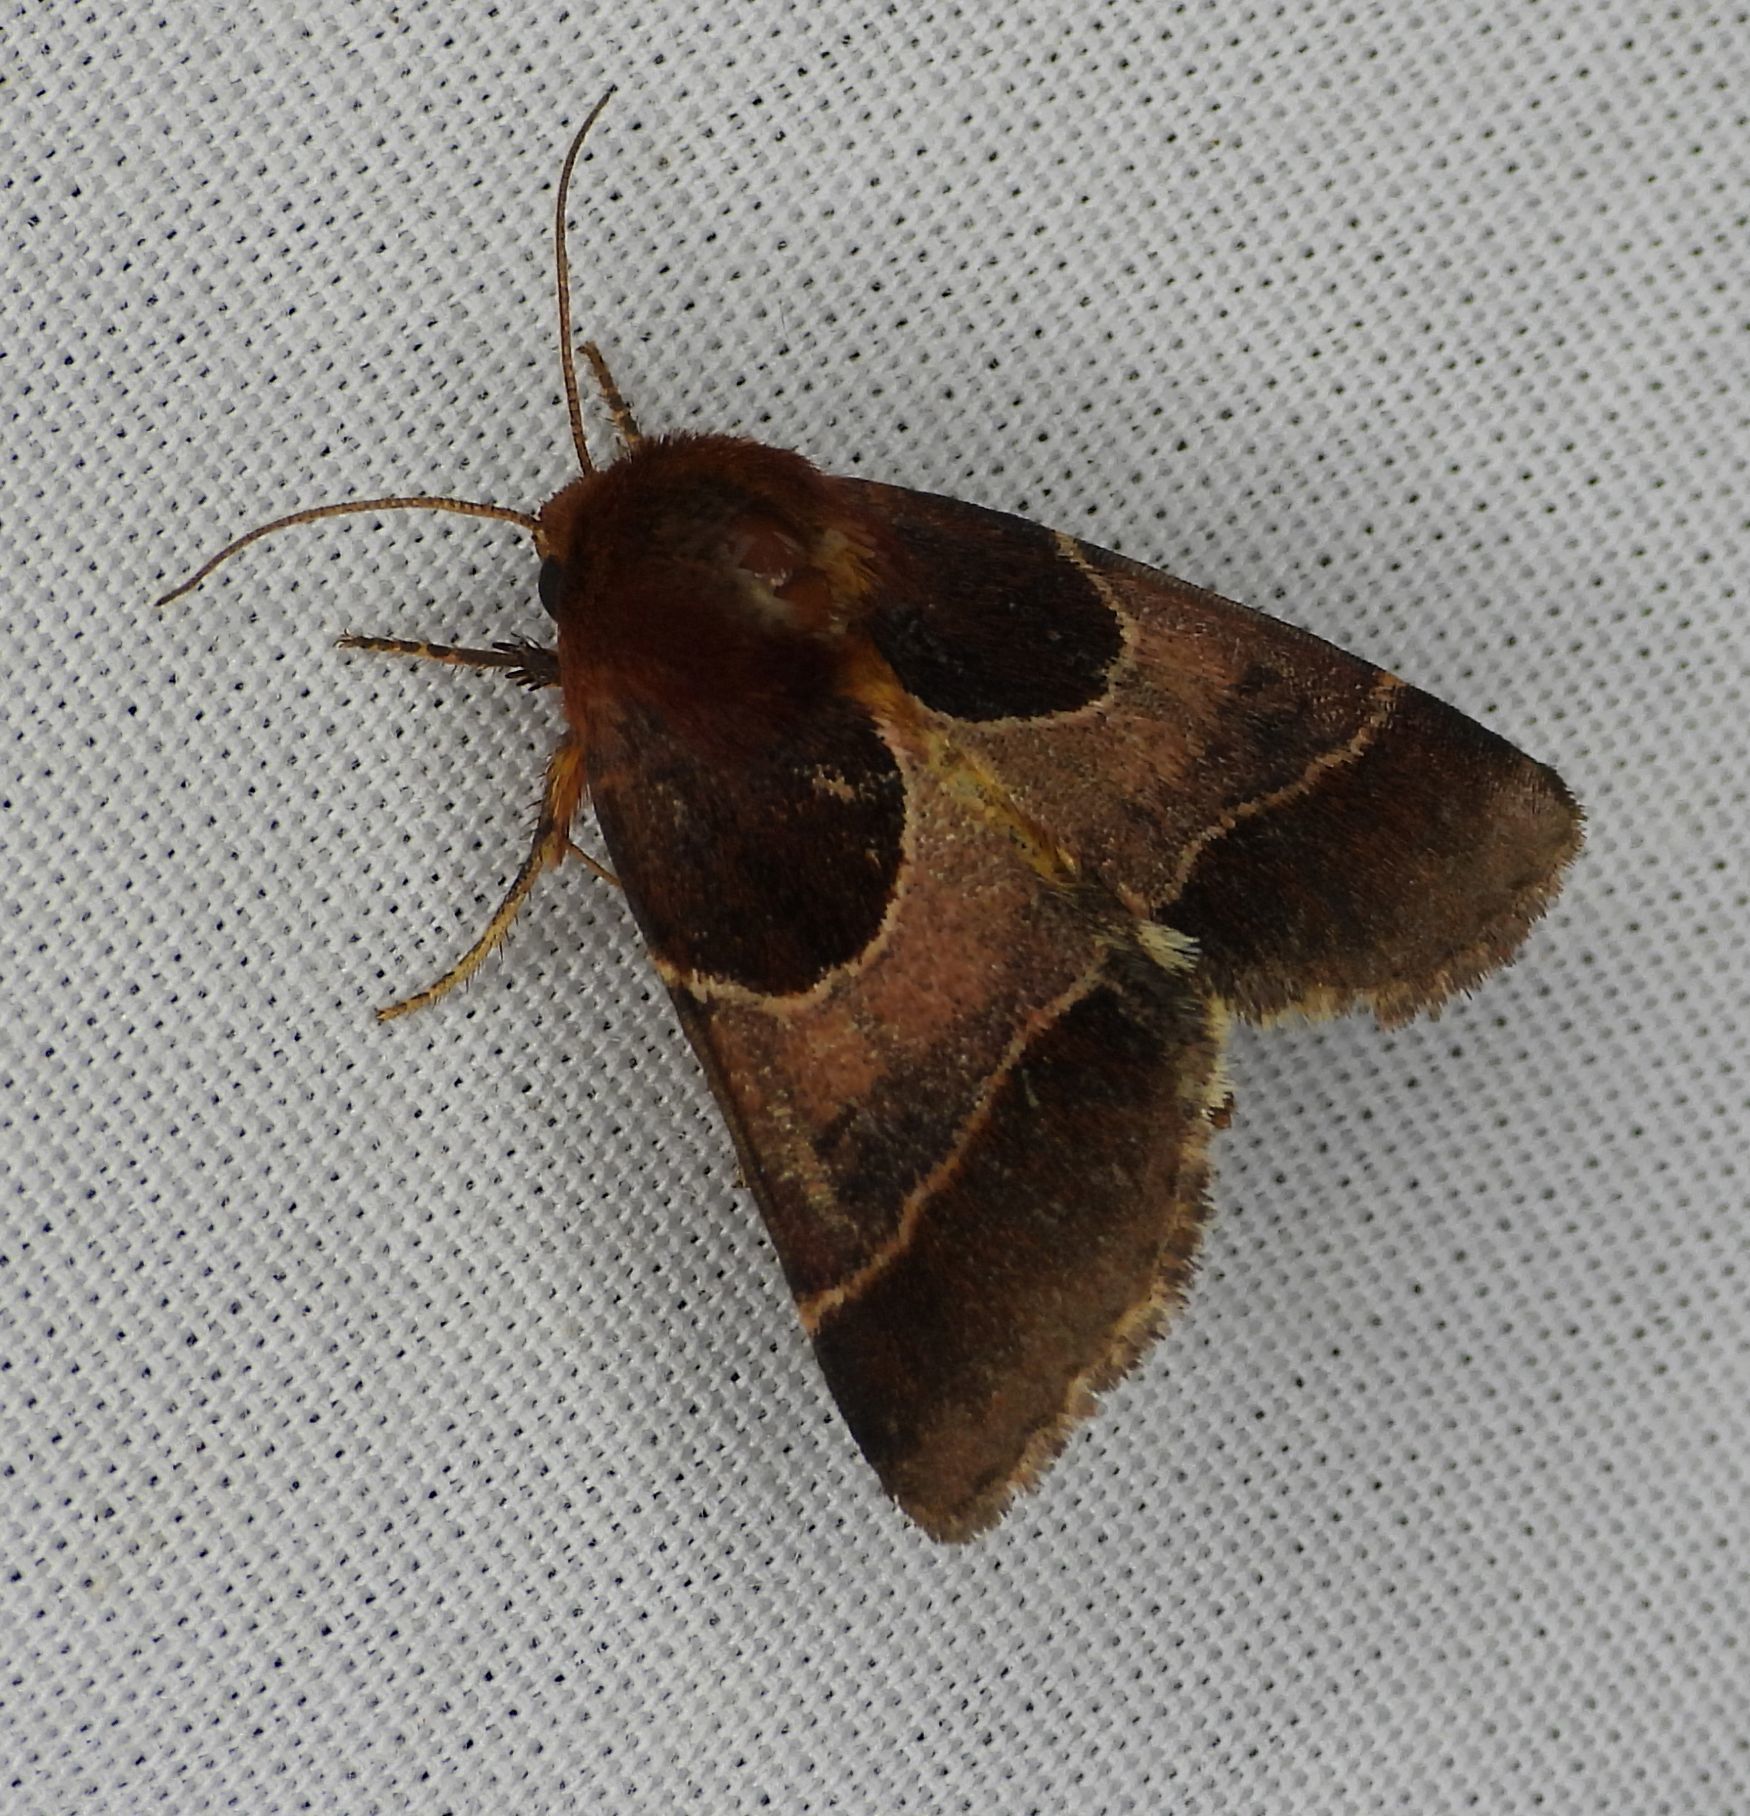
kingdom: Animalia
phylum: Arthropoda
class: Insecta
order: Lepidoptera
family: Noctuidae
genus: Schinia
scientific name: Schinia arcigera
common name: Arcigera flower moth
